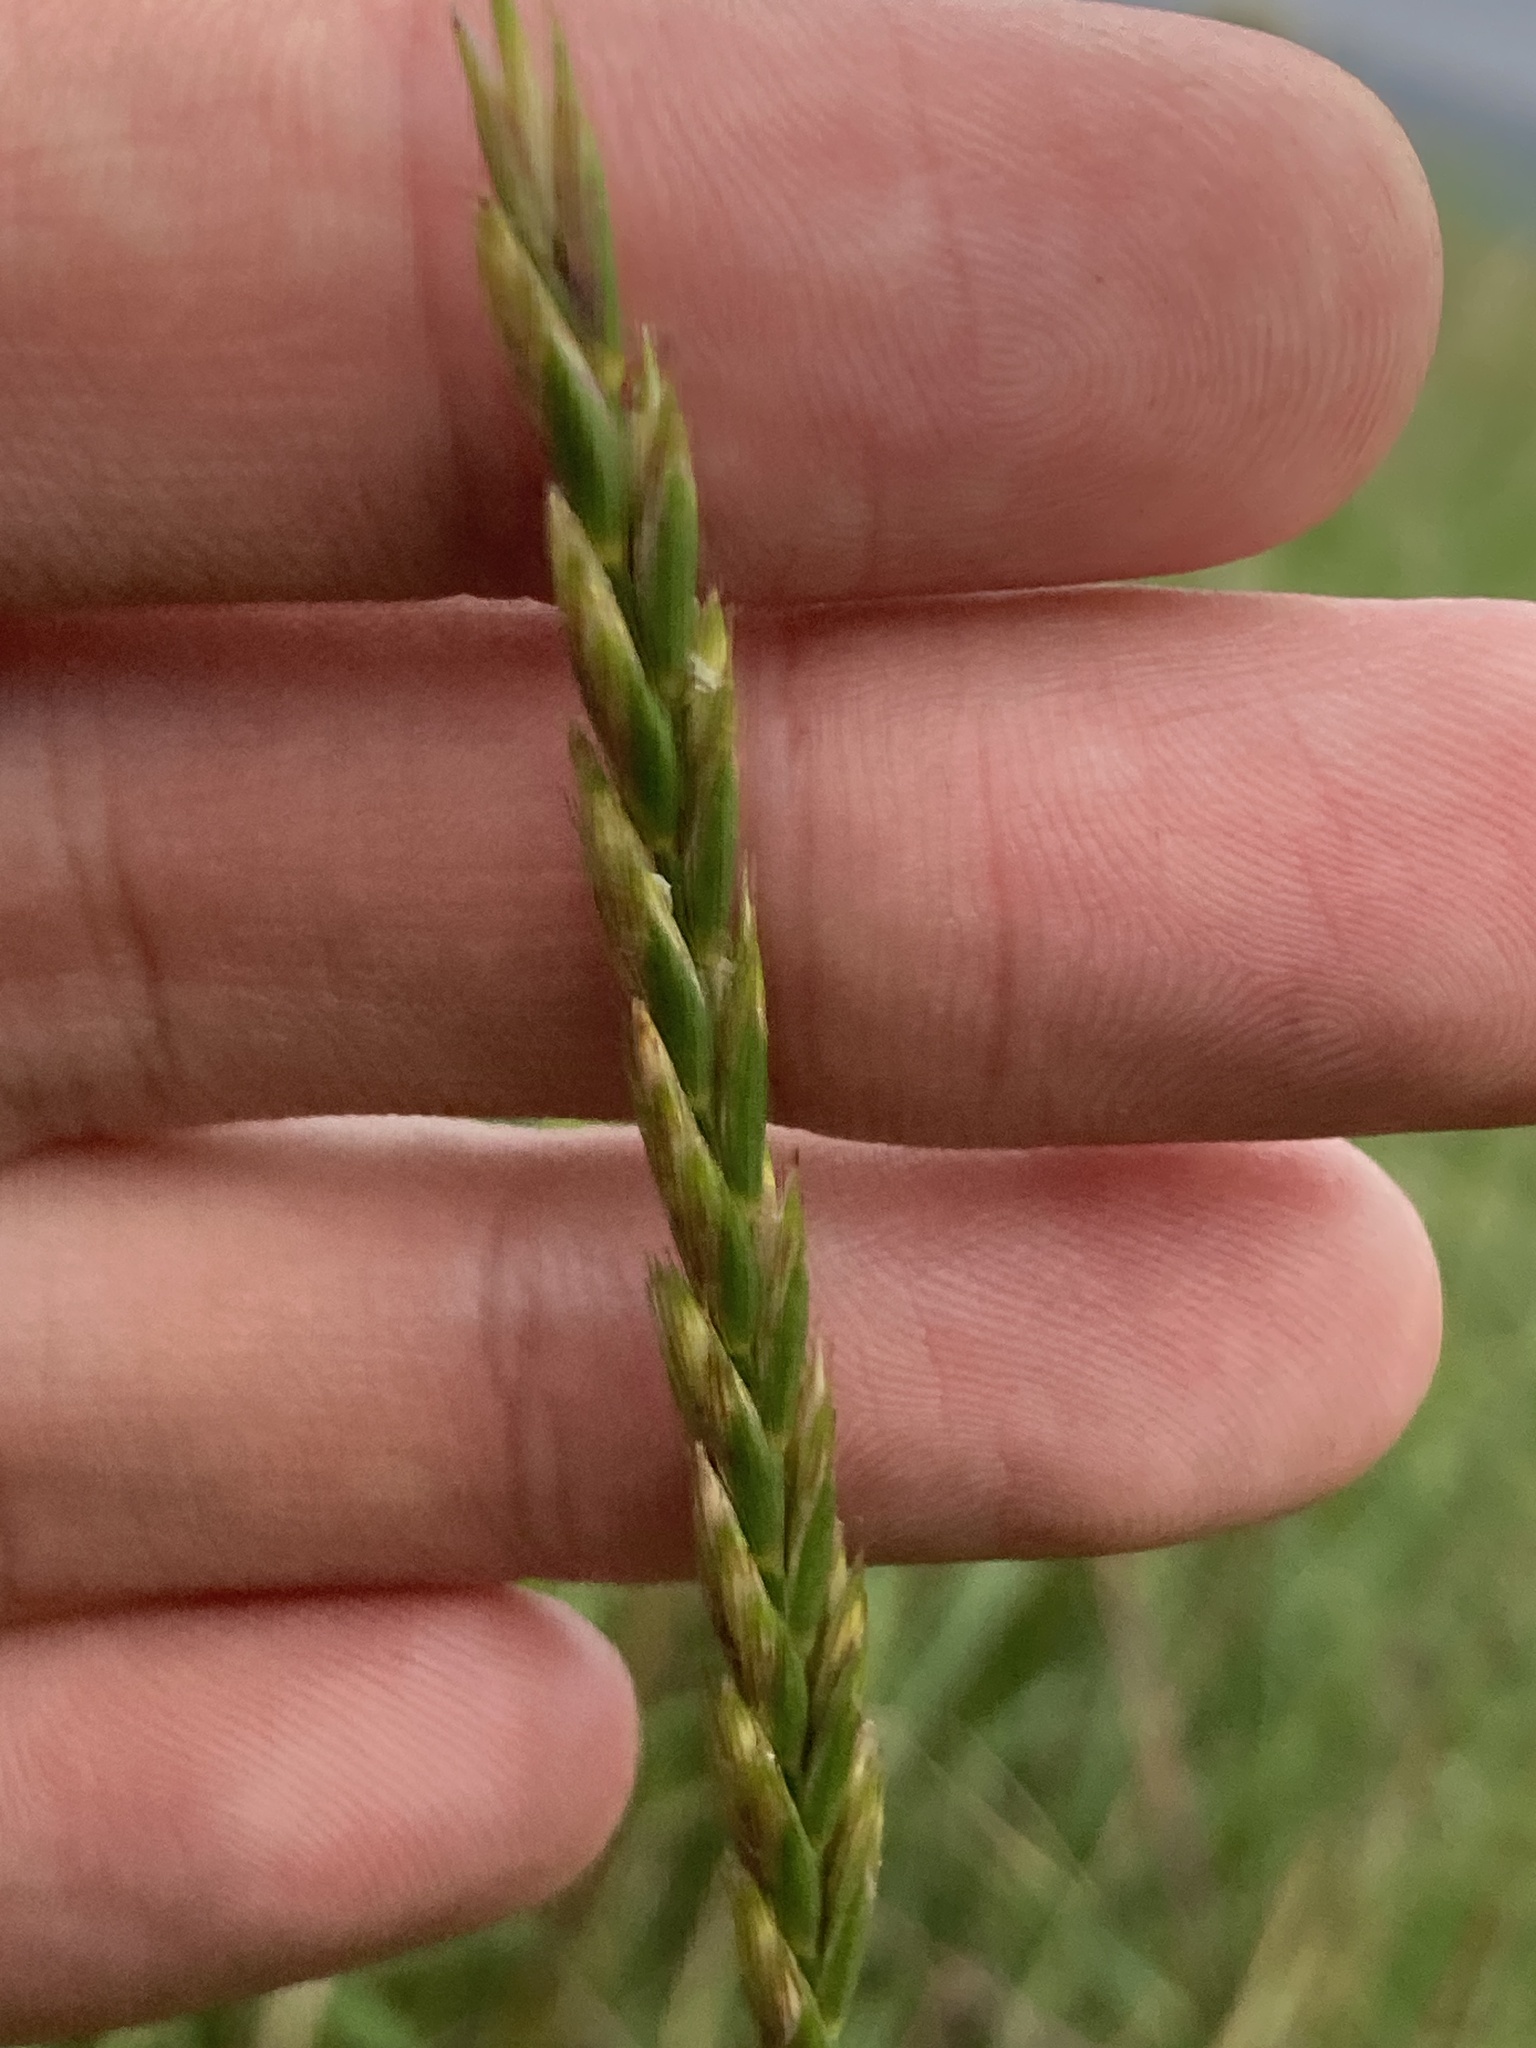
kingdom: Plantae
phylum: Tracheophyta
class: Liliopsida
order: Poales
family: Poaceae
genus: Elymus
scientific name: Elymus repens
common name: Quackgrass
